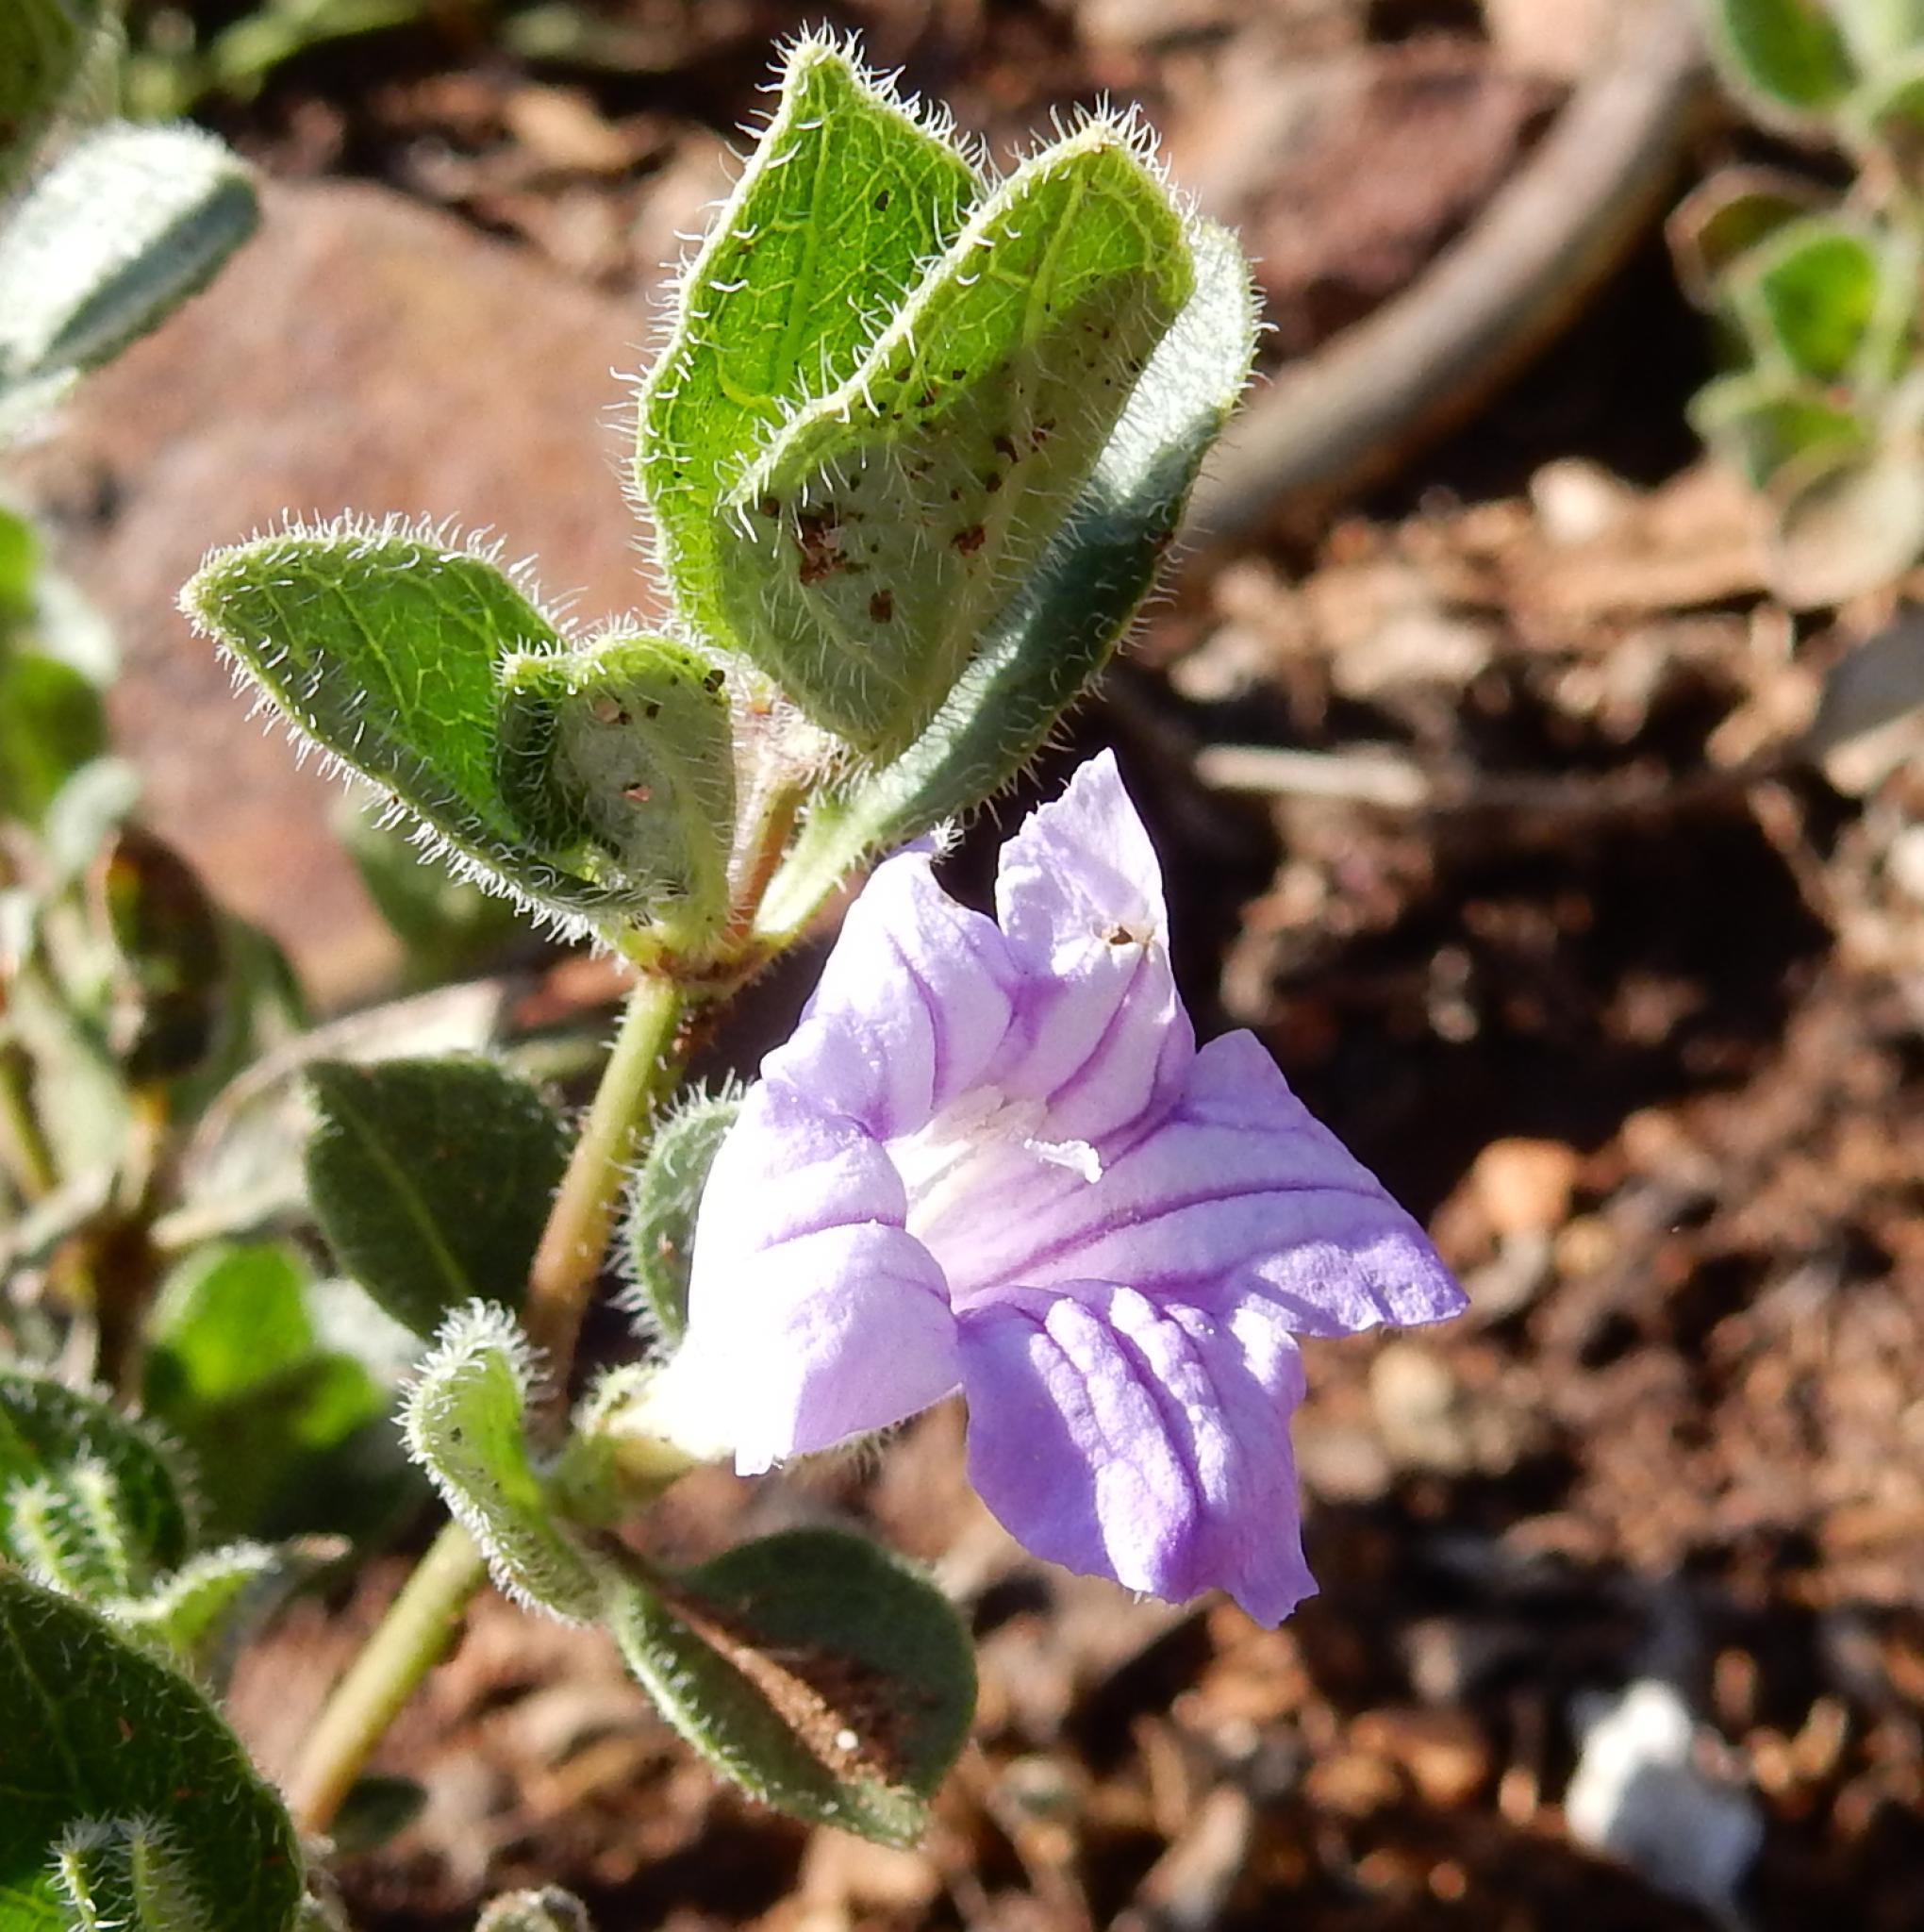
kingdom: Plantae
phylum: Tracheophyta
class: Magnoliopsida
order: Lamiales
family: Acanthaceae
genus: Ruellia
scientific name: Ruellia cordata
